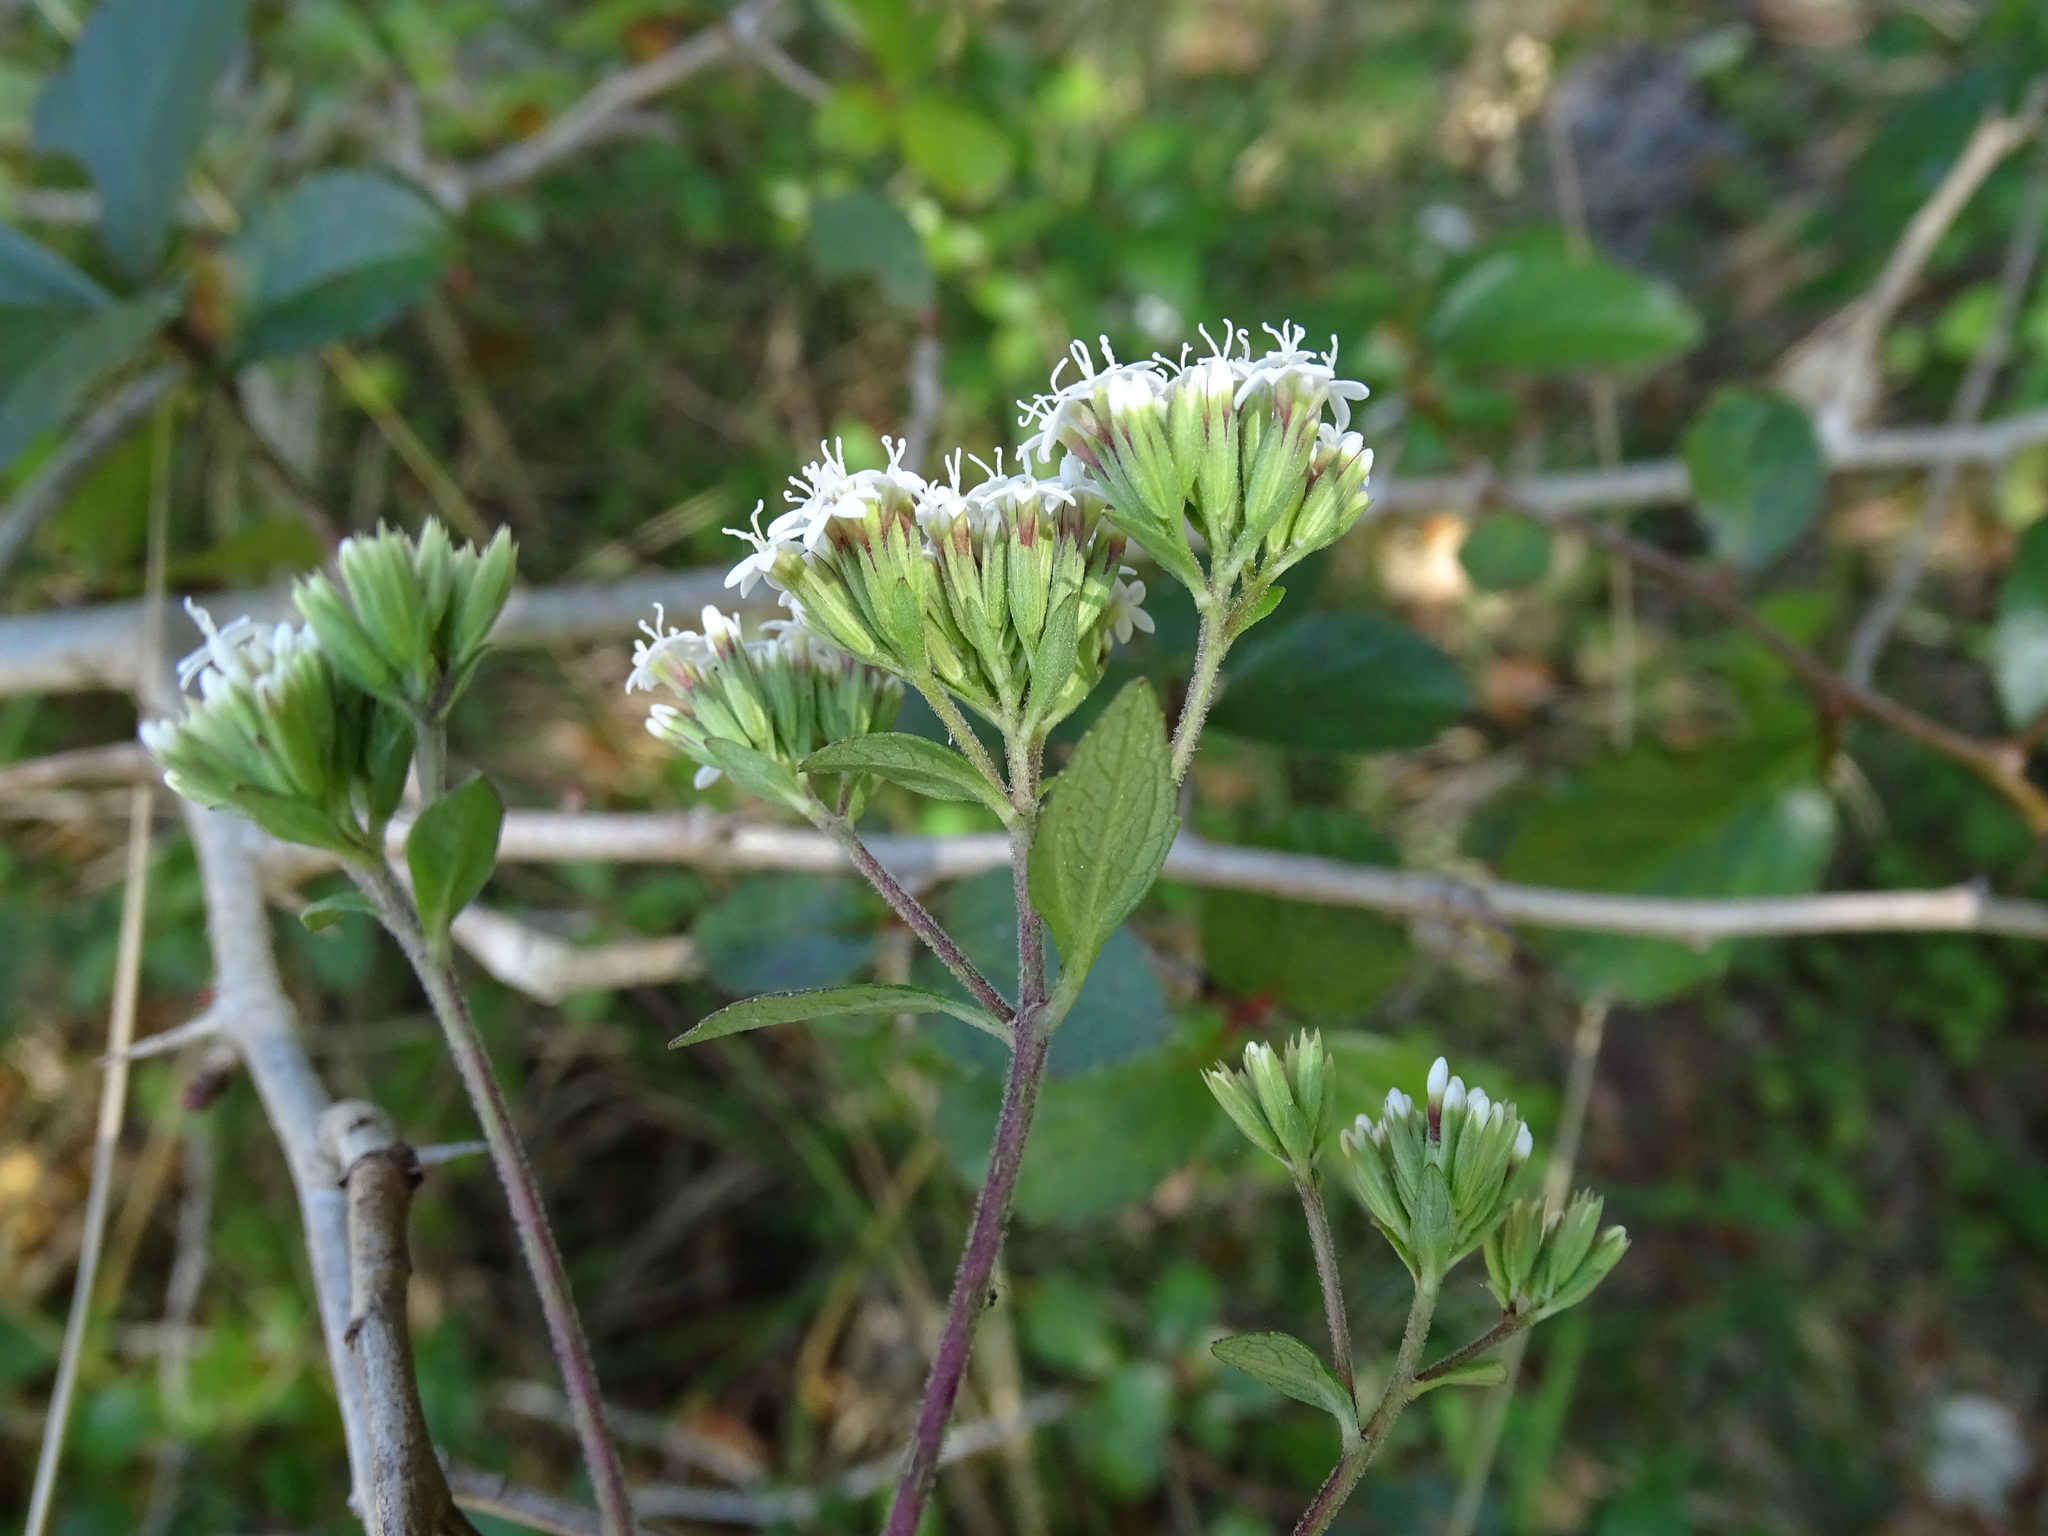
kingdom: Plantae
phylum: Tracheophyta
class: Magnoliopsida
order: Asterales
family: Asteraceae
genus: Stevia
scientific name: Stevia ovata
